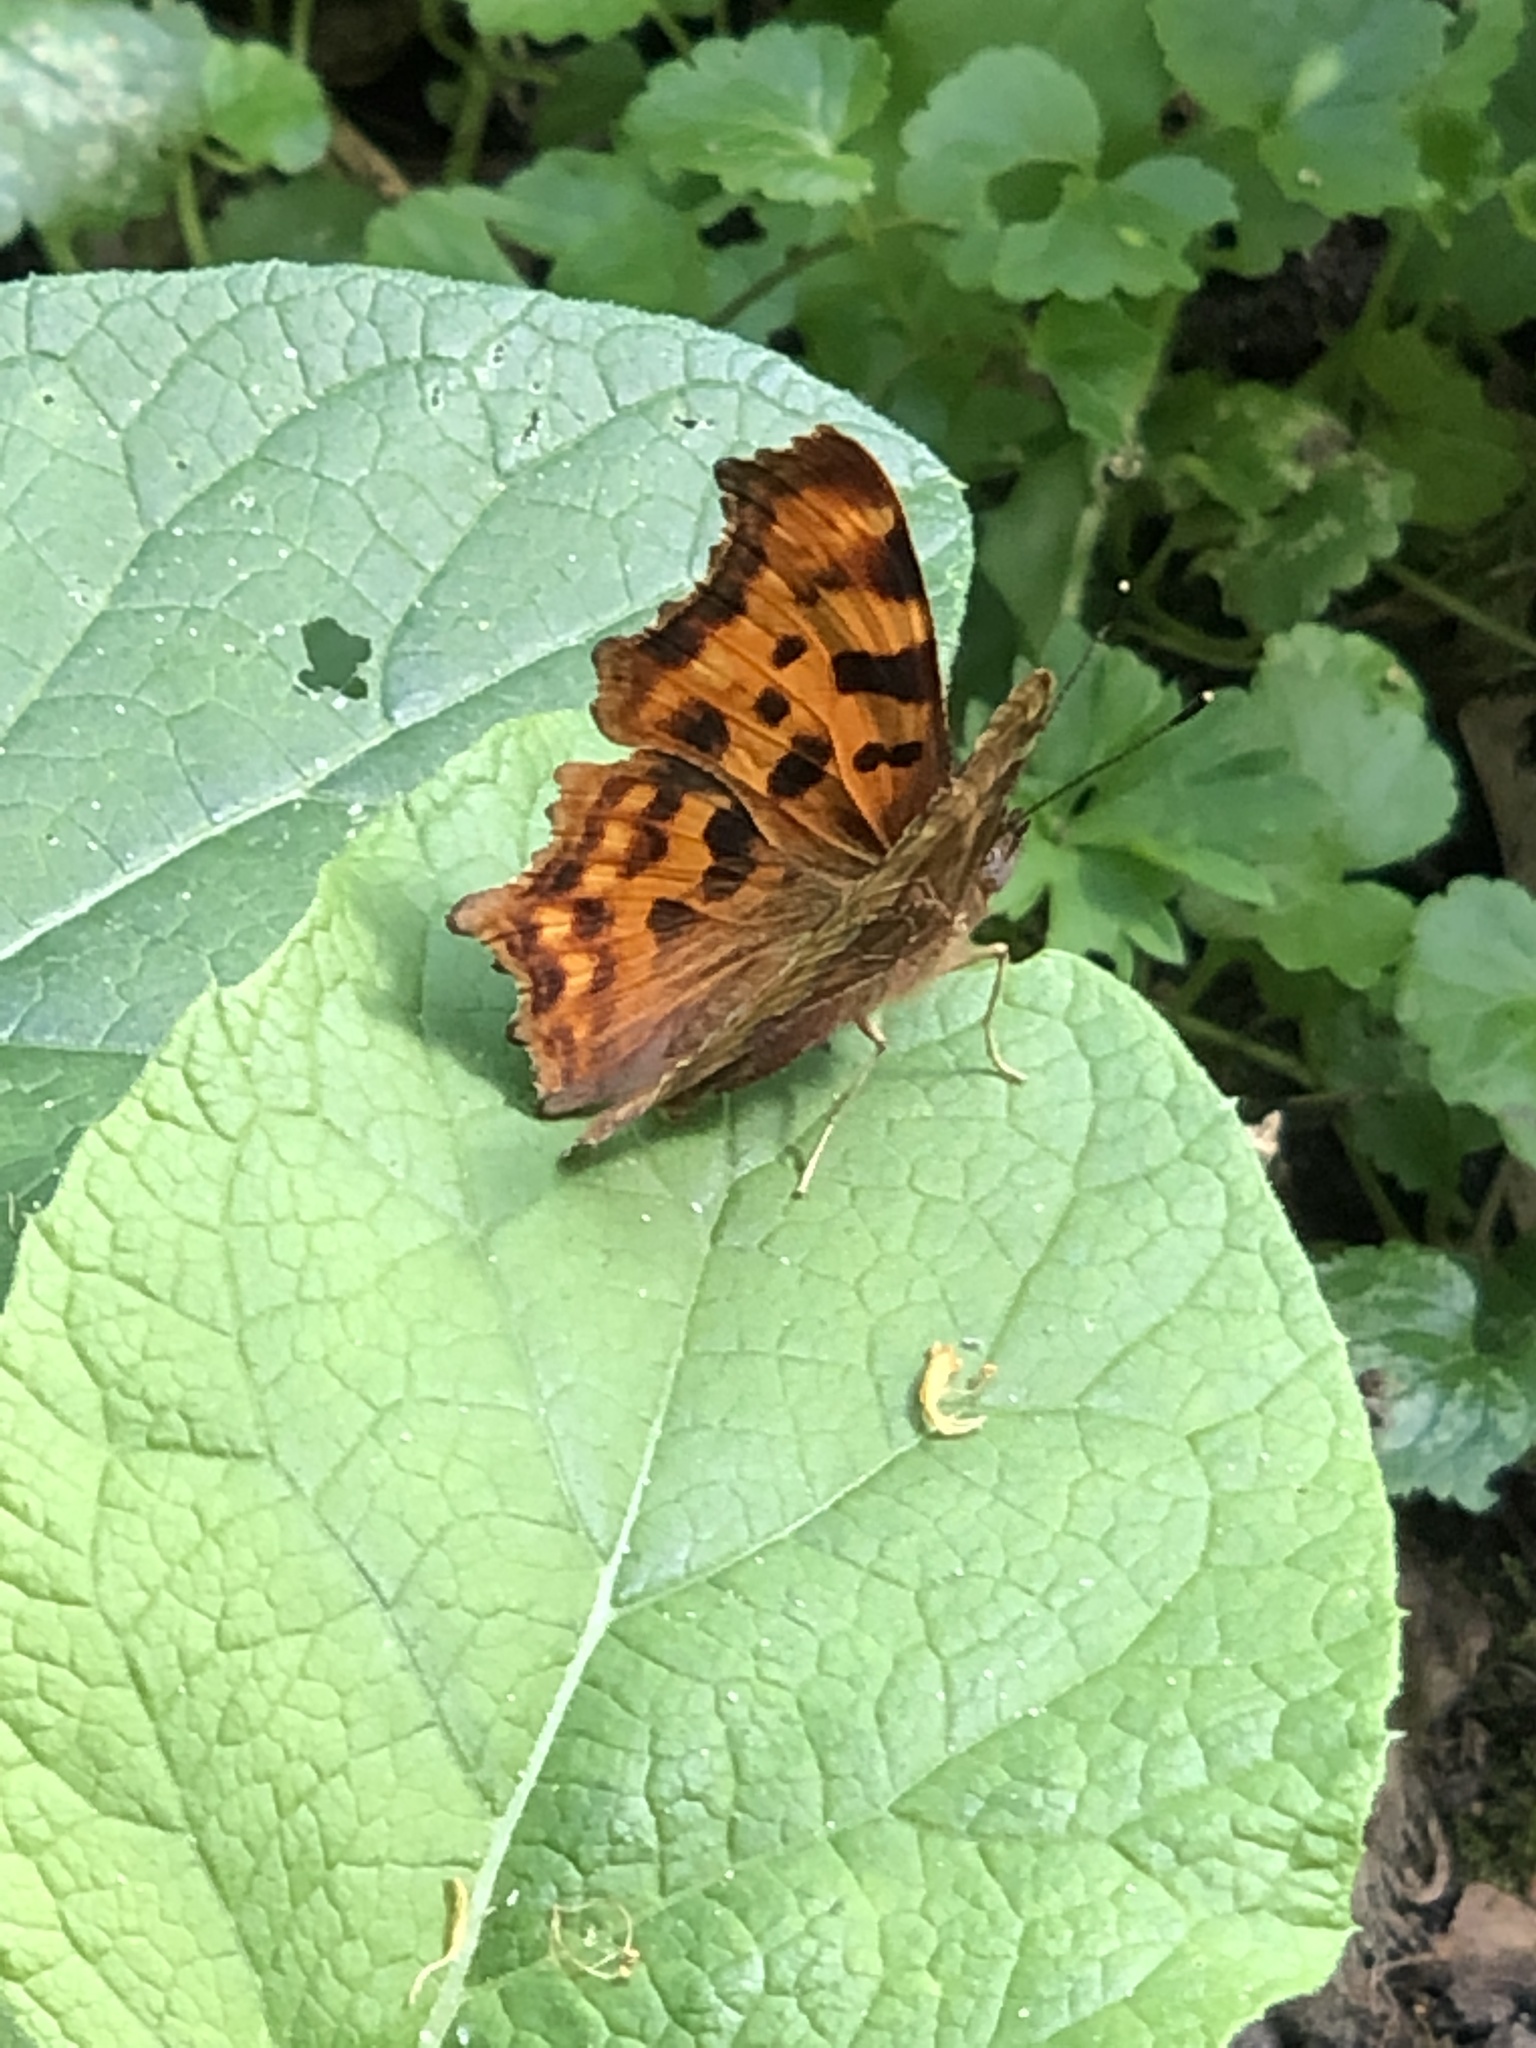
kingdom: Animalia
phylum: Arthropoda
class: Insecta
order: Lepidoptera
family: Nymphalidae
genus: Polygonia
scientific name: Polygonia c-album
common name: Comma
